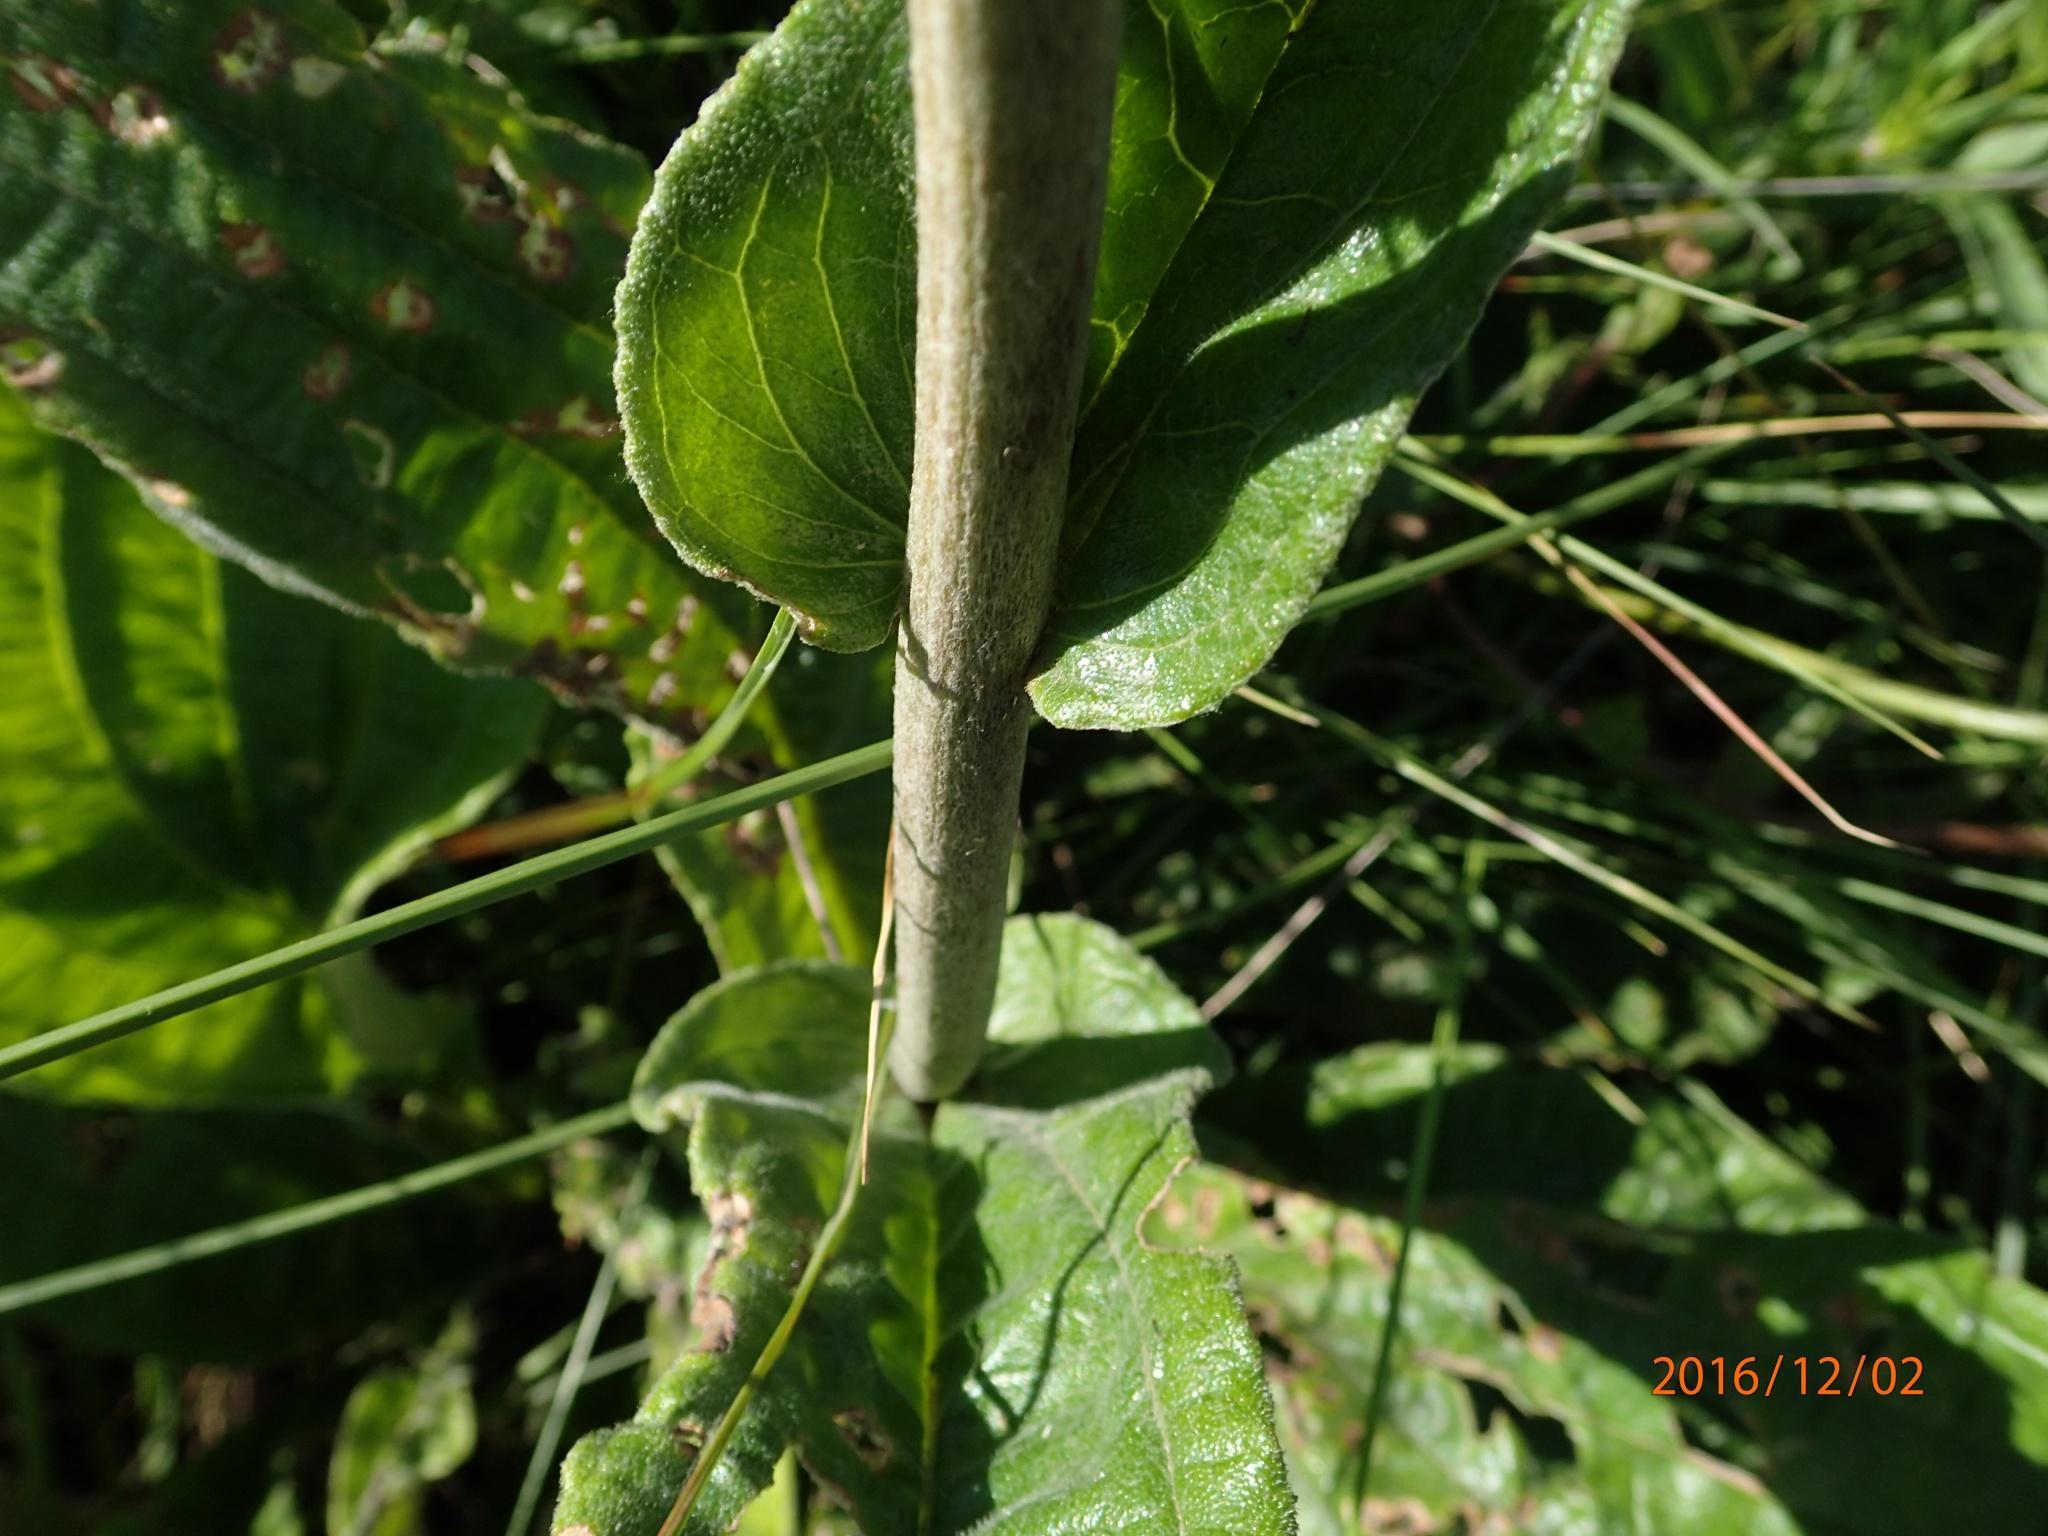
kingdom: Plantae
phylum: Tracheophyta
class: Magnoliopsida
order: Asterales
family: Asteraceae
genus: Helichrysum
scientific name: Helichrysum pallidum
